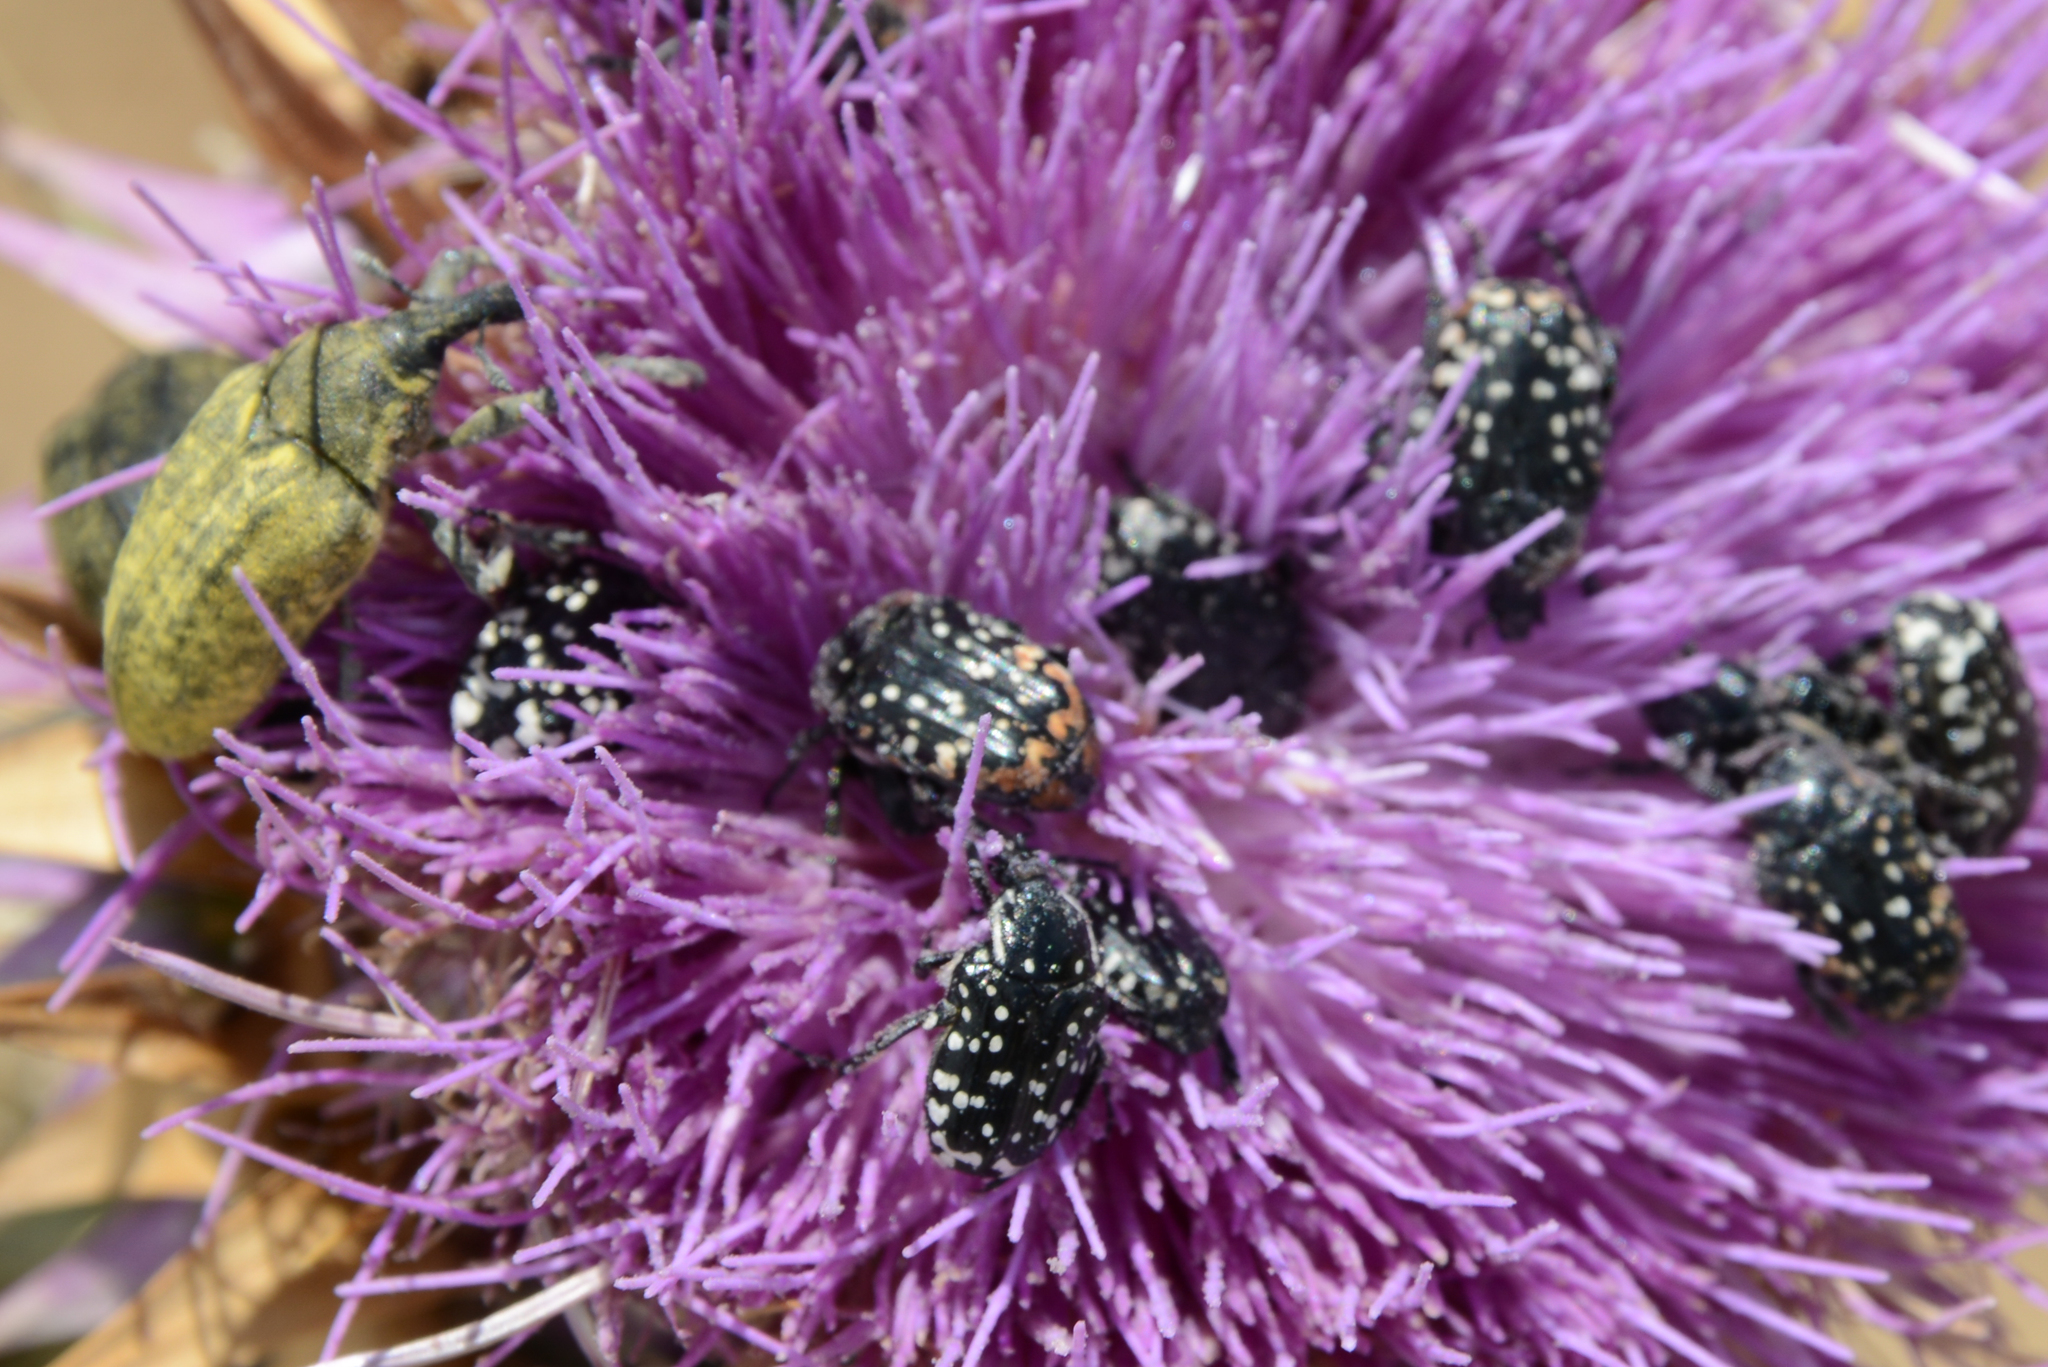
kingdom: Animalia
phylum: Arthropoda
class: Insecta
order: Coleoptera
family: Scarabaeidae
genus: Oxythyrea
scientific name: Oxythyrea cinctella
